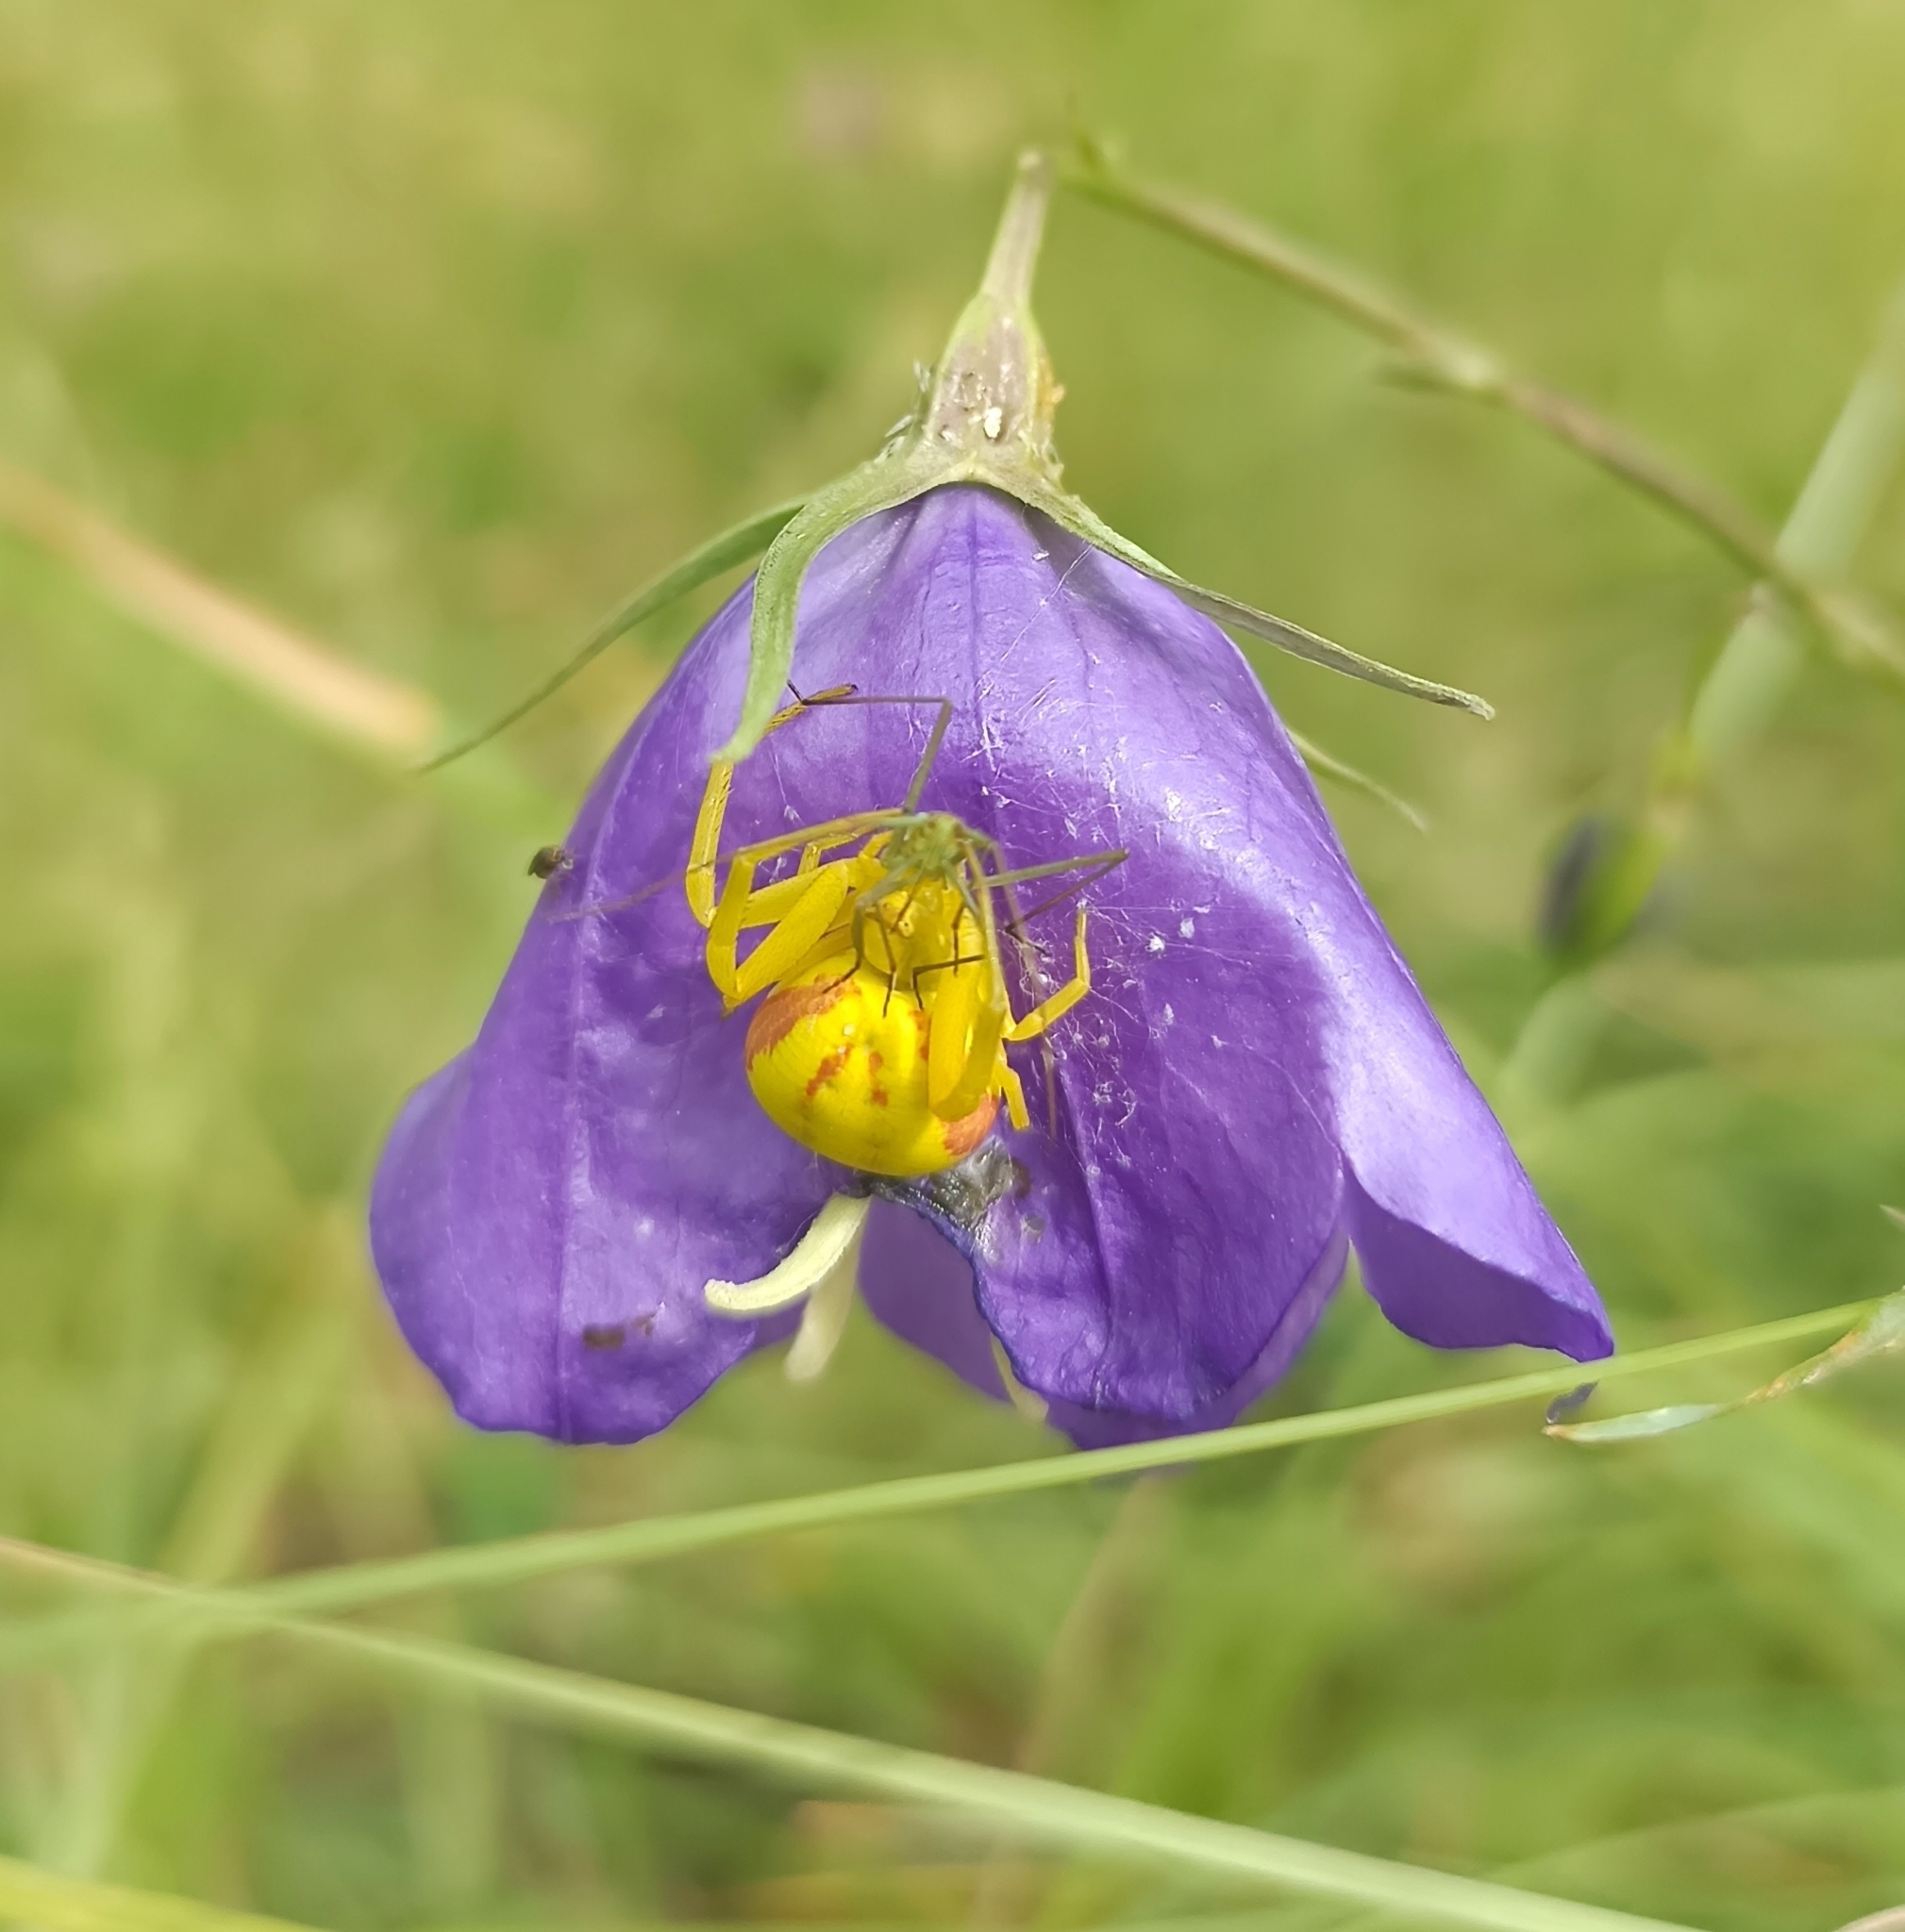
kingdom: Animalia
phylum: Arthropoda
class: Arachnida
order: Araneae
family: Thomisidae
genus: Misumena
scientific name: Misumena vatia
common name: Goldenrod crab spider
